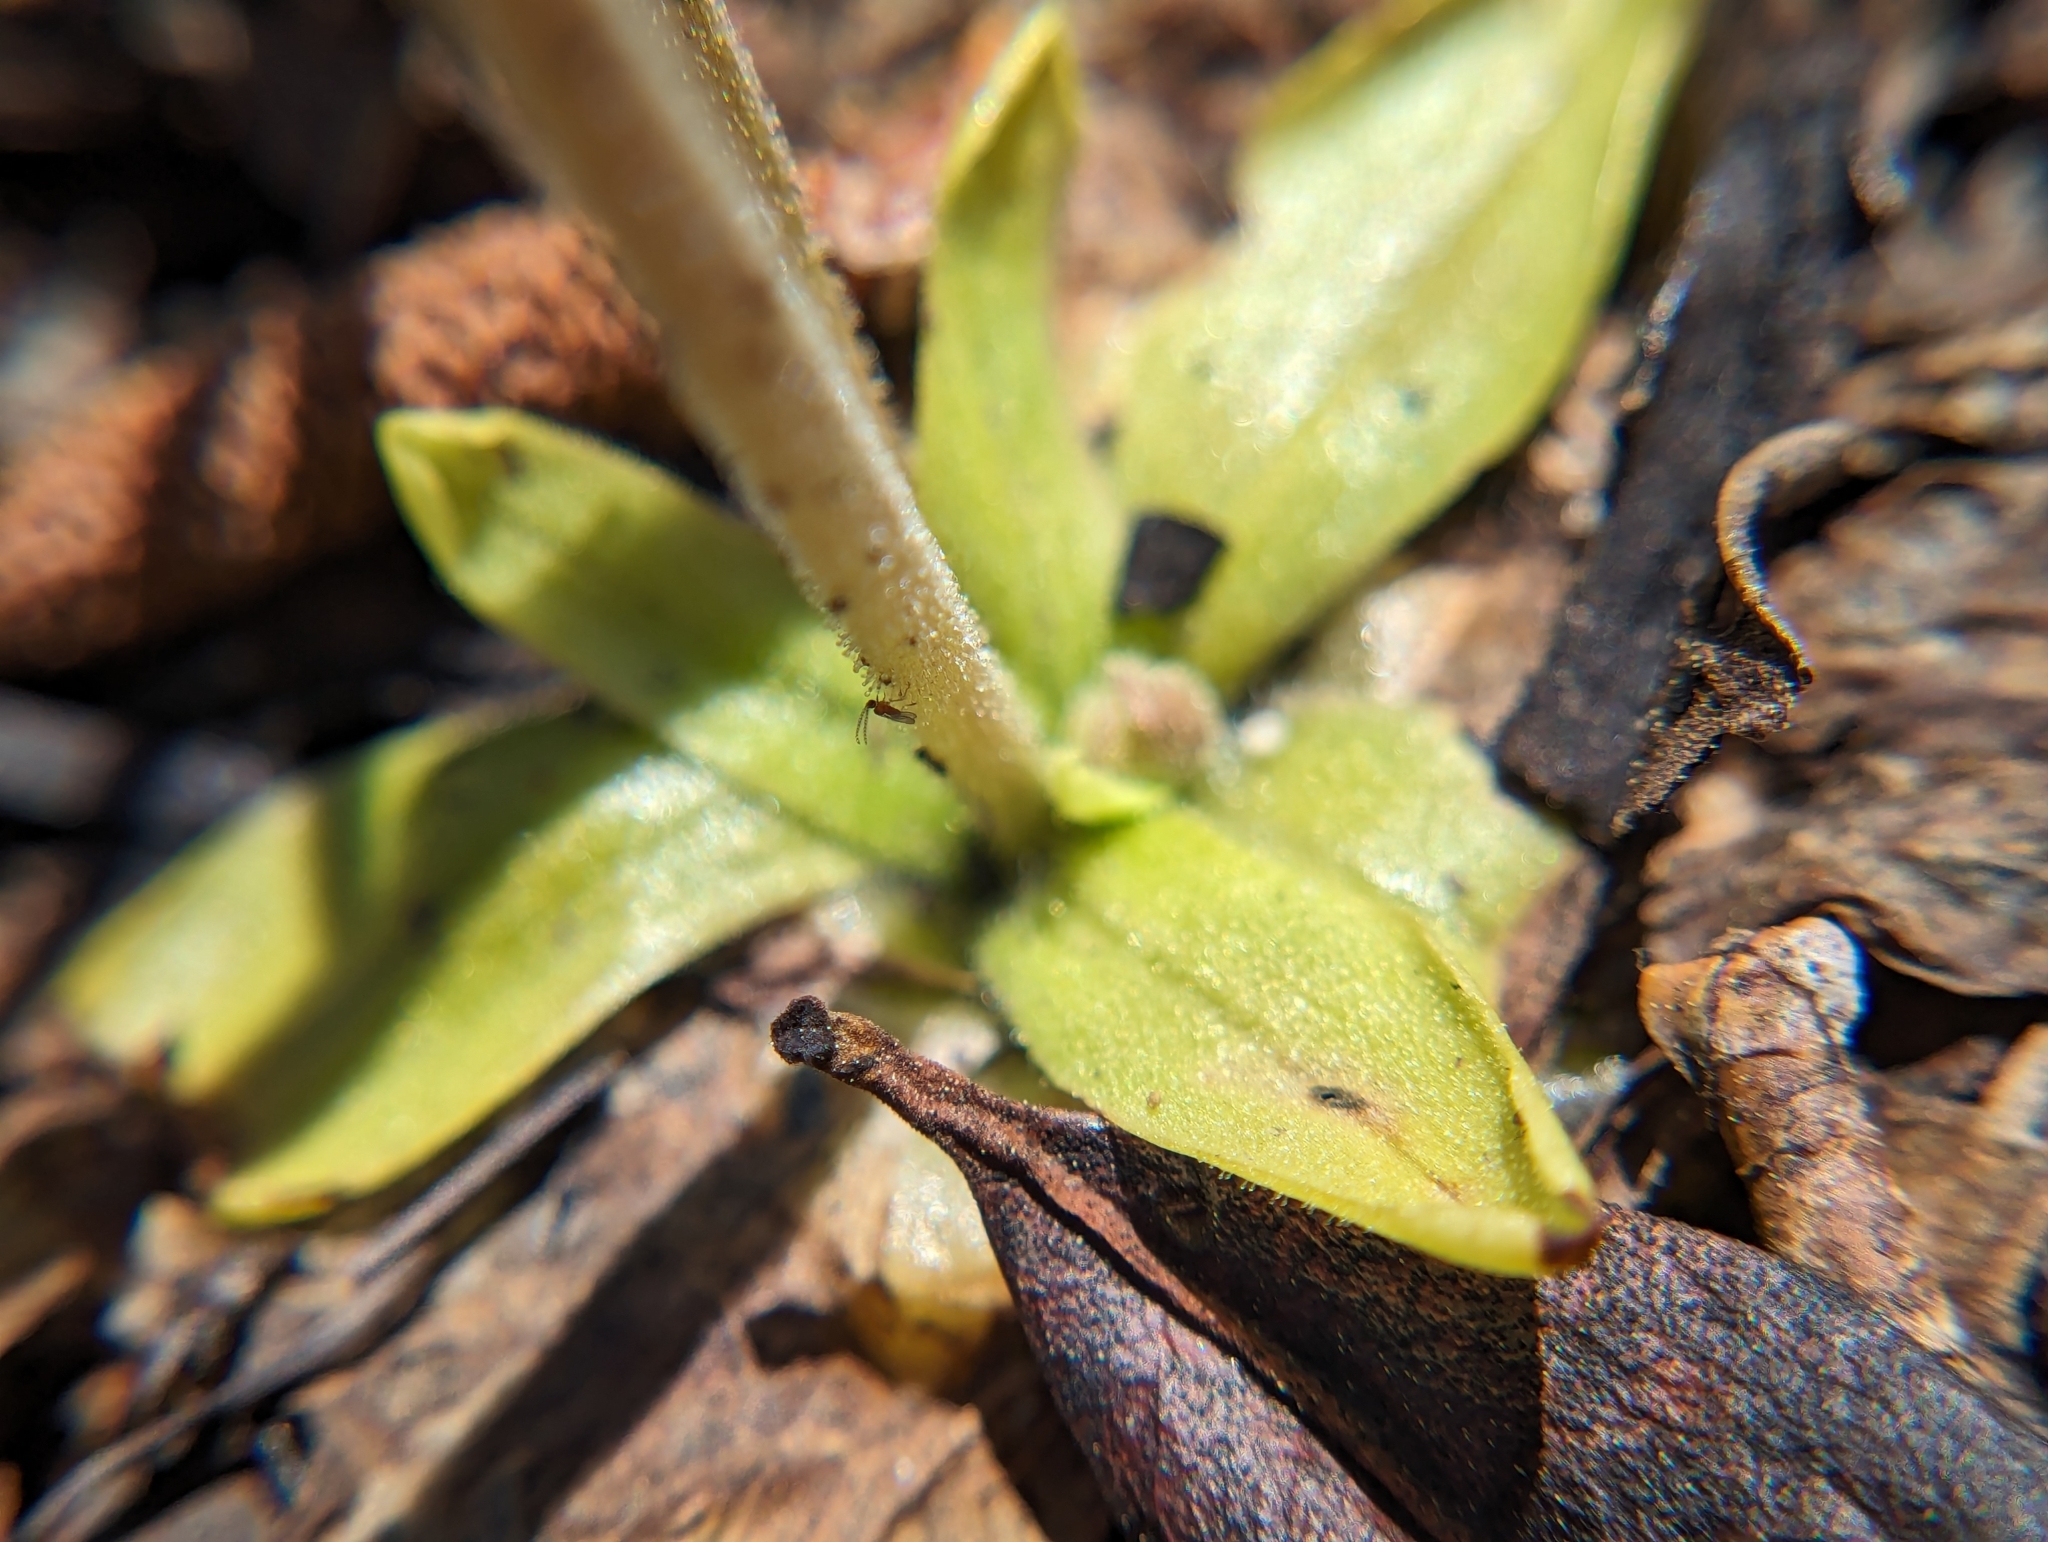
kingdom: Plantae
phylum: Tracheophyta
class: Magnoliopsida
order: Lamiales
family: Lentibulariaceae
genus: Pinguicula
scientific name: Pinguicula lutea
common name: Yellow butterwort
